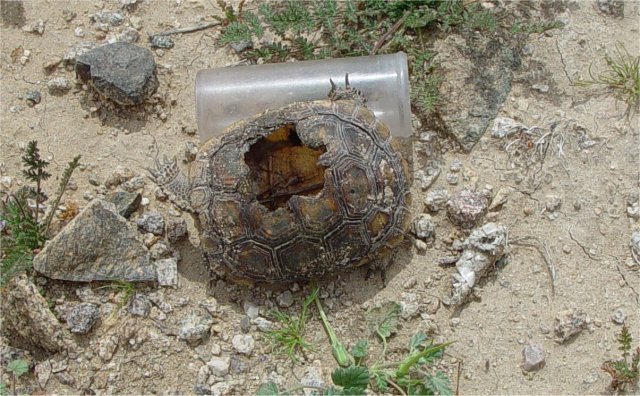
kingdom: Animalia
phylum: Chordata
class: Testudines
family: Testudinidae
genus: Gopherus
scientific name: Gopherus agassizii
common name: Mojave desert tortoise
